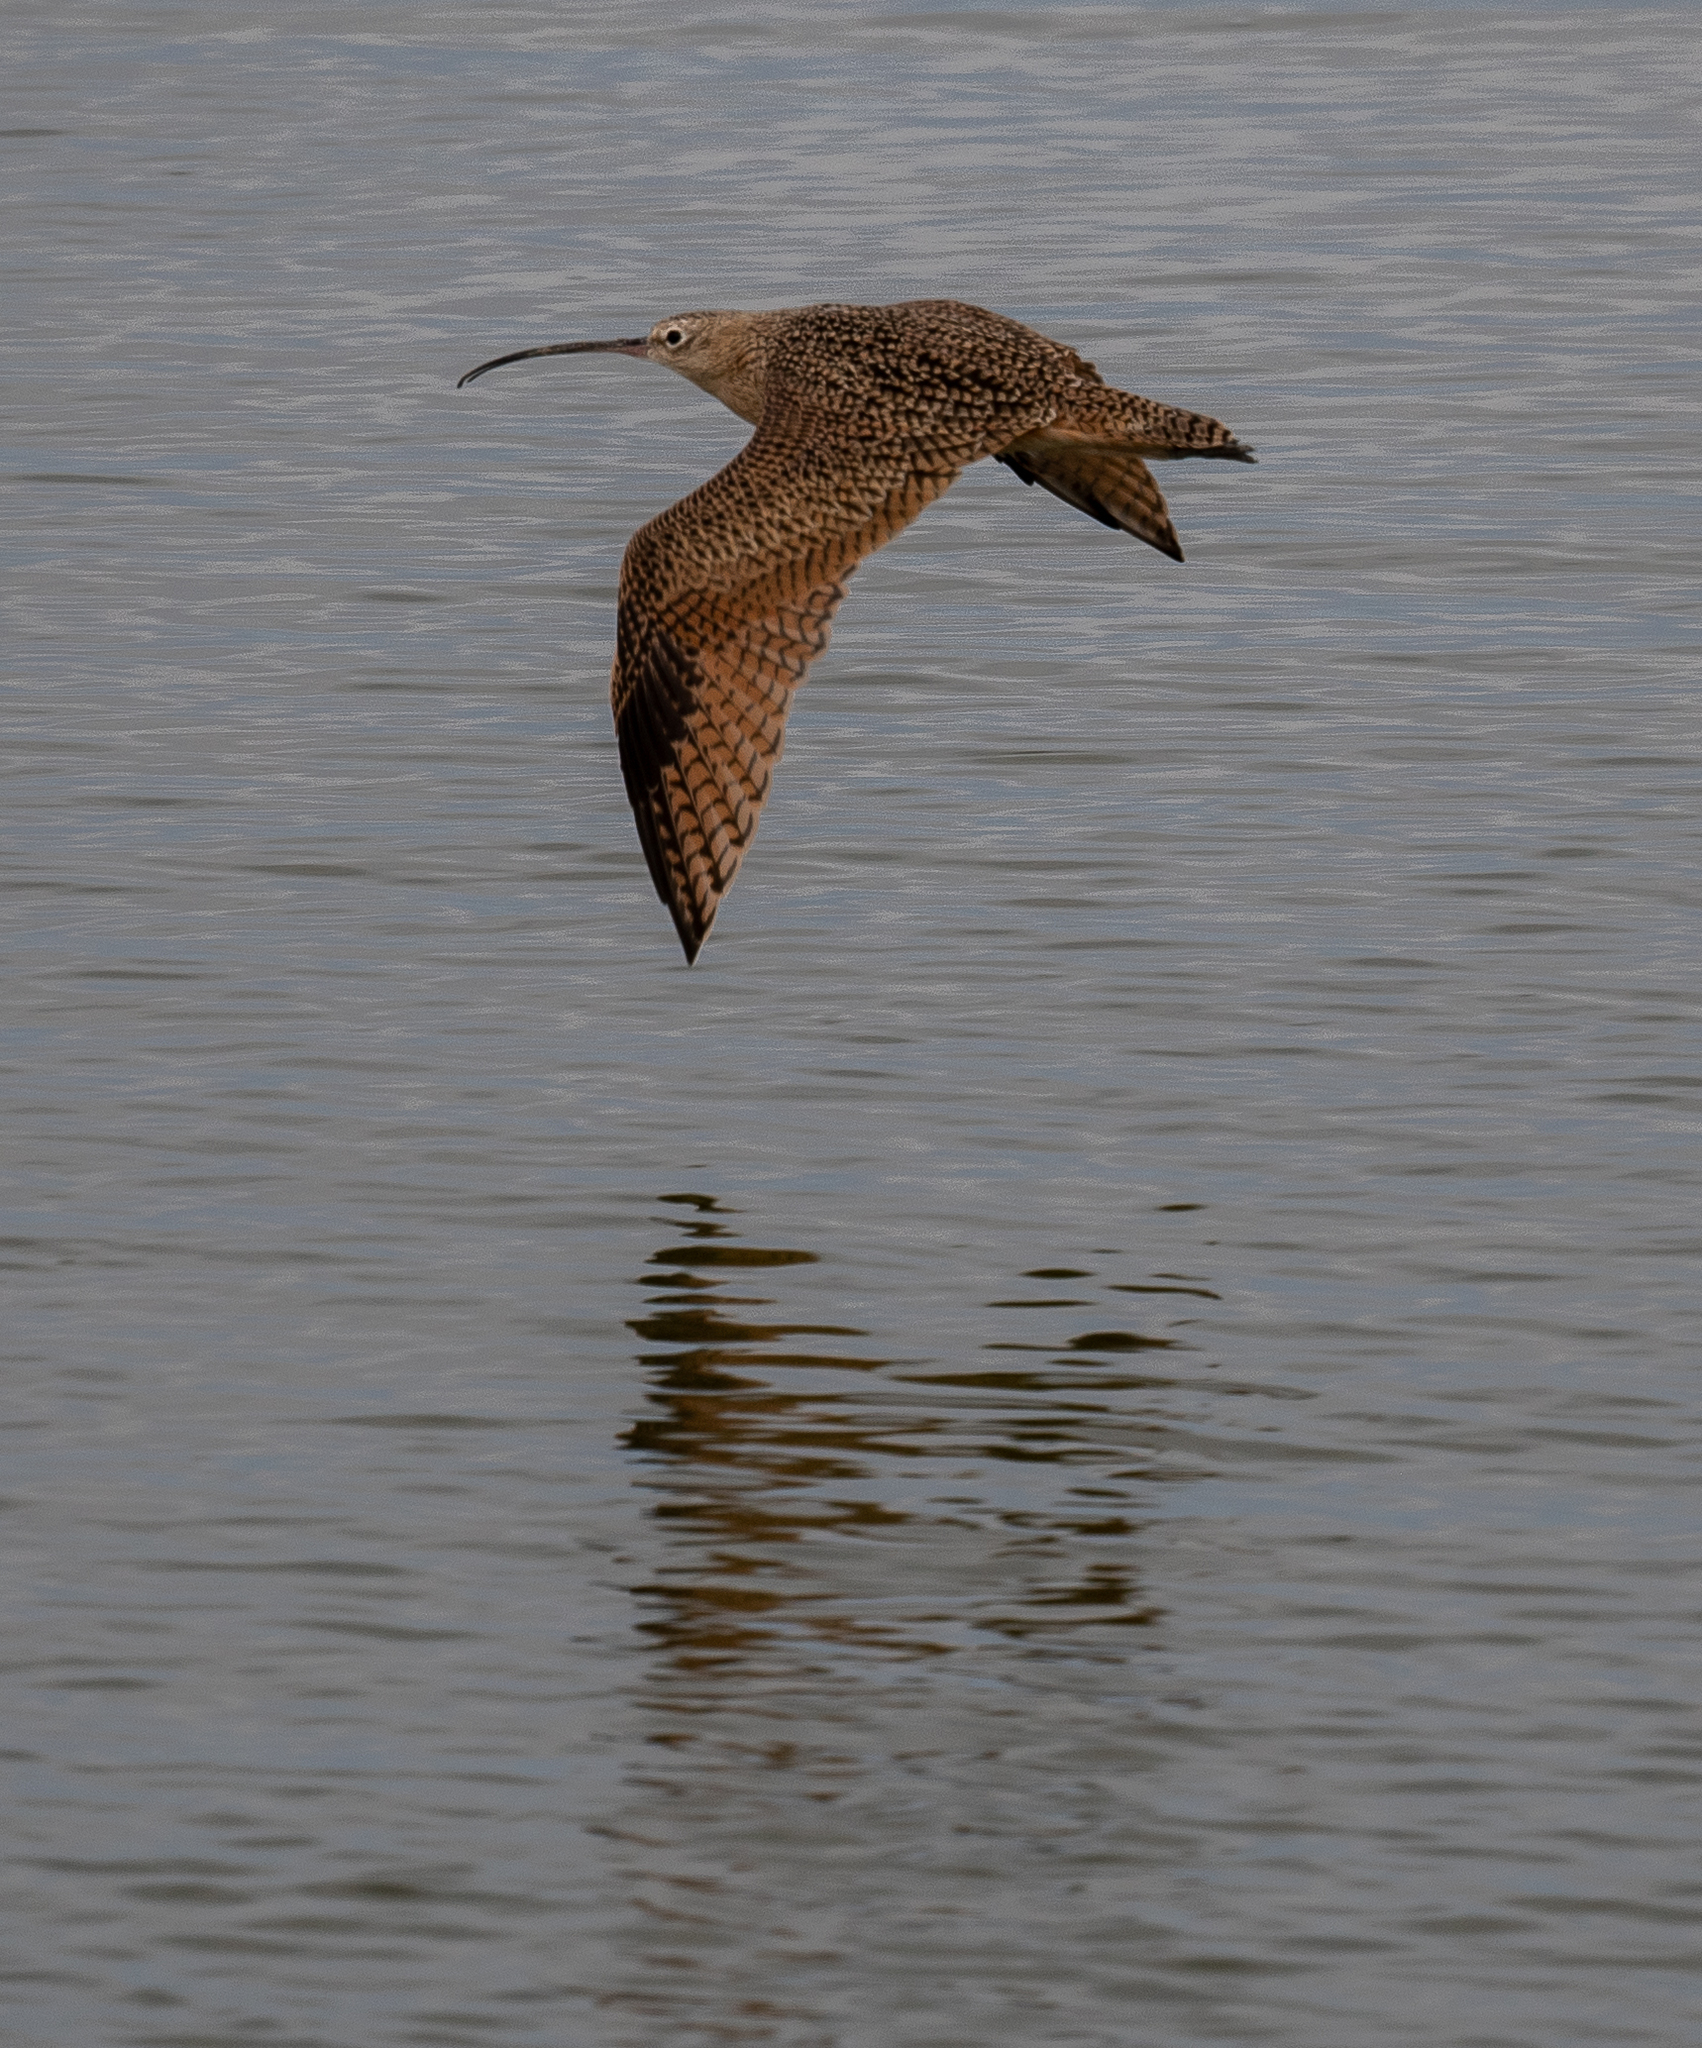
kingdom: Animalia
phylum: Chordata
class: Aves
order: Charadriiformes
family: Scolopacidae
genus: Numenius
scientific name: Numenius americanus
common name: Long-billed curlew
